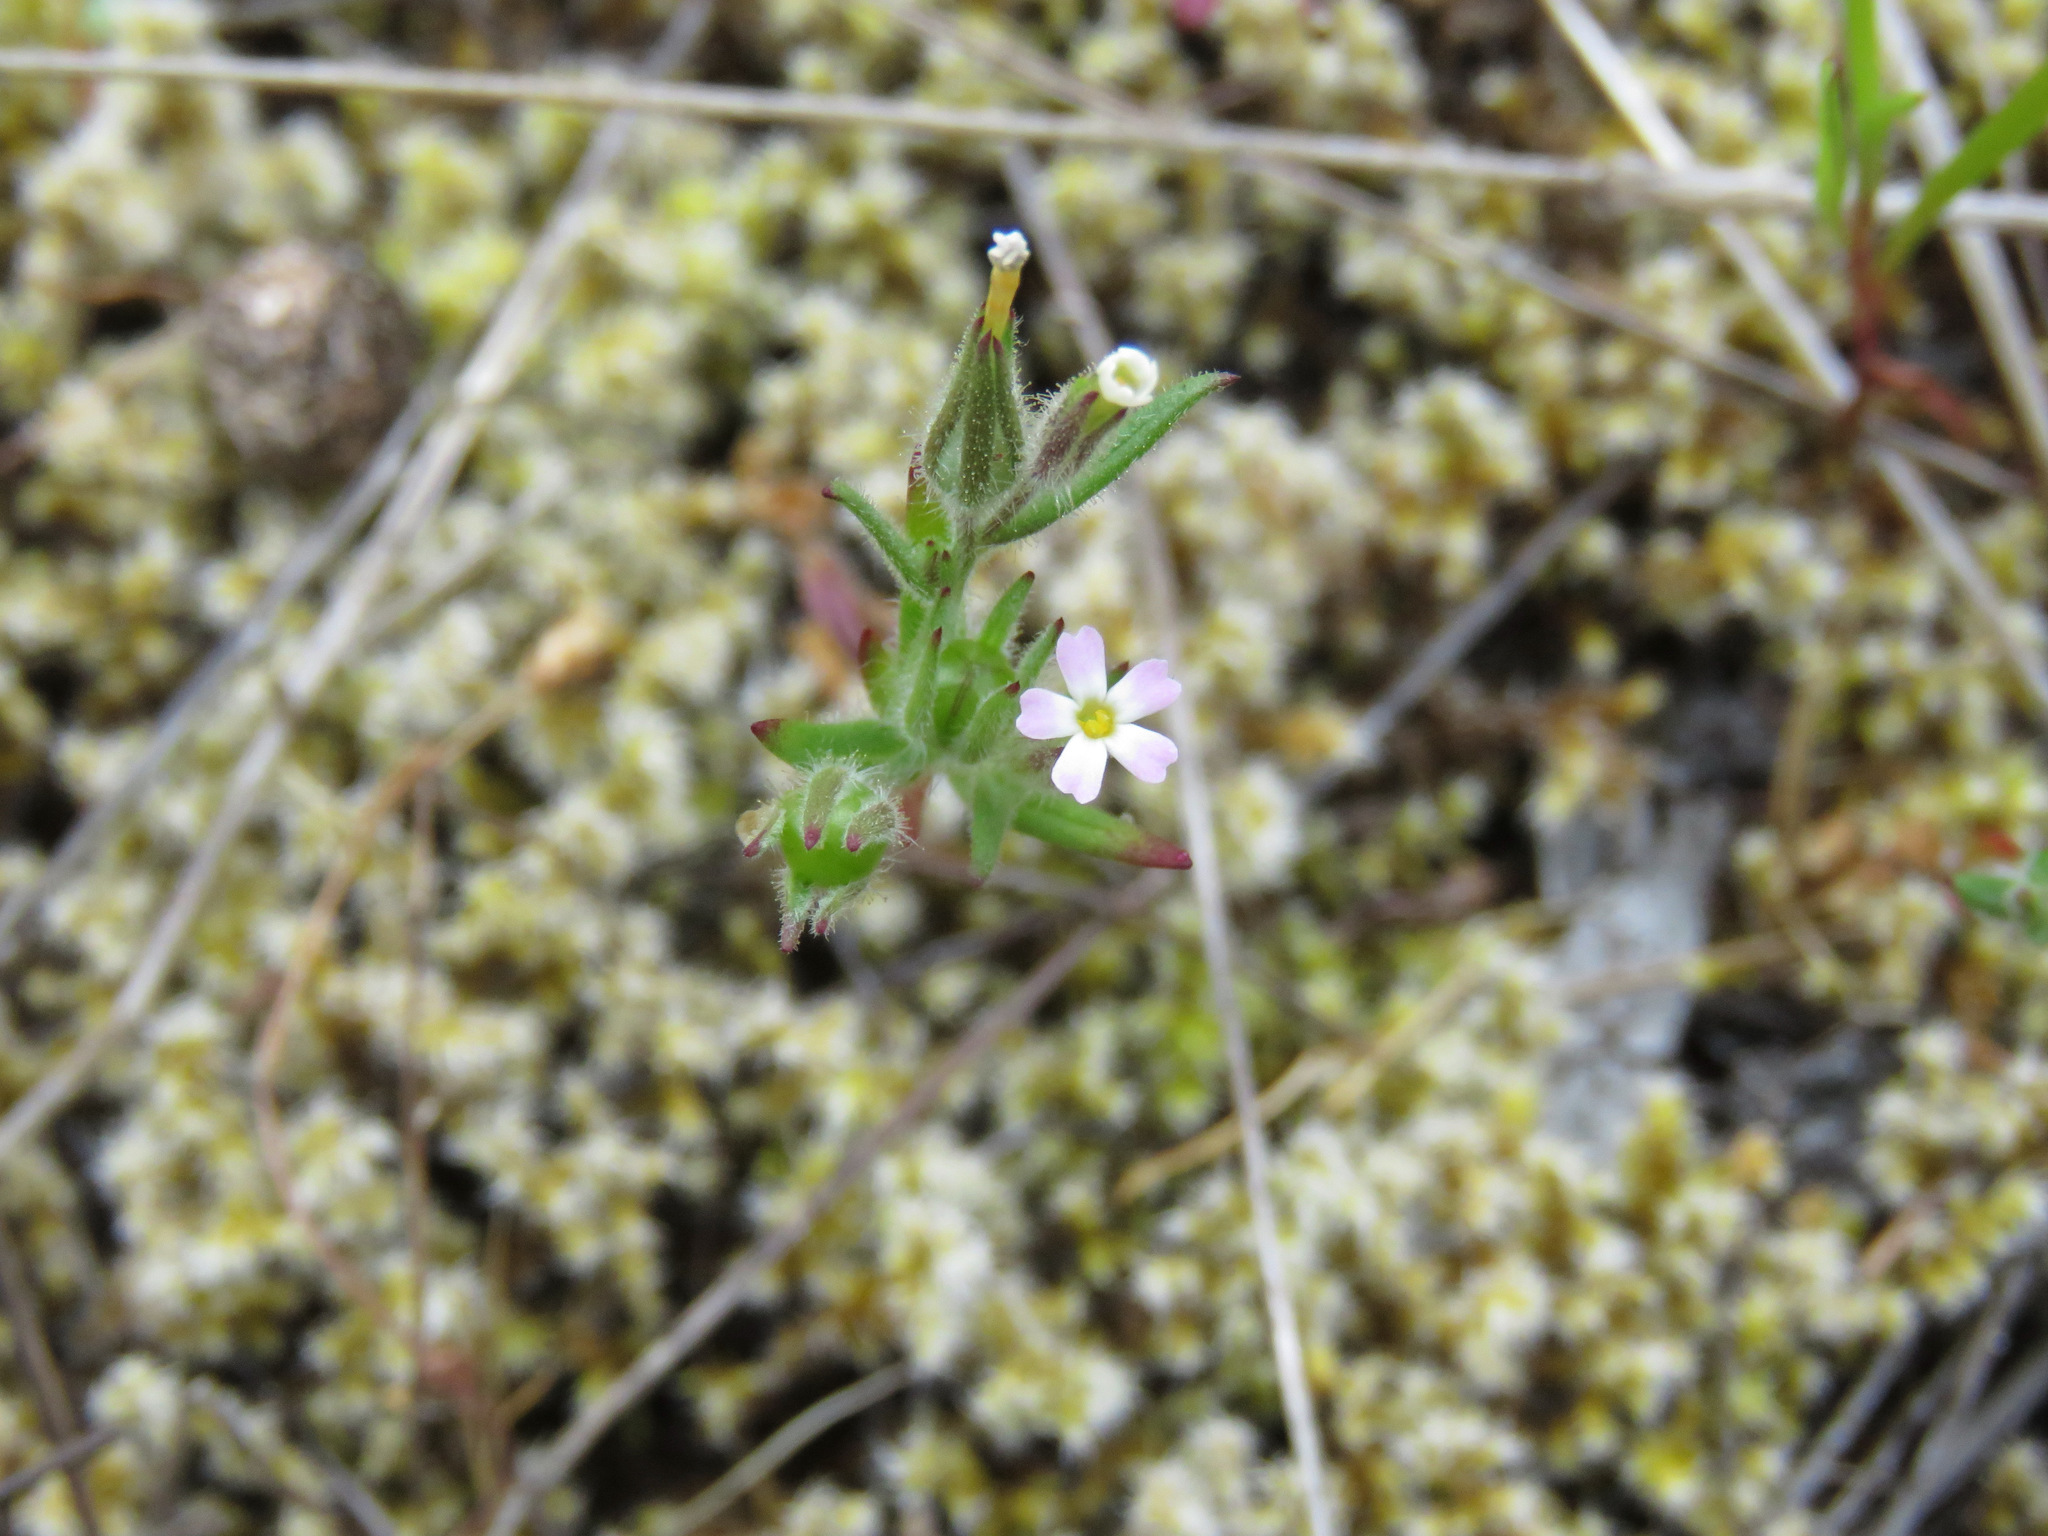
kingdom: Plantae
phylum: Tracheophyta
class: Magnoliopsida
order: Ericales
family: Polemoniaceae
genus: Phlox
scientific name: Phlox gracilis
